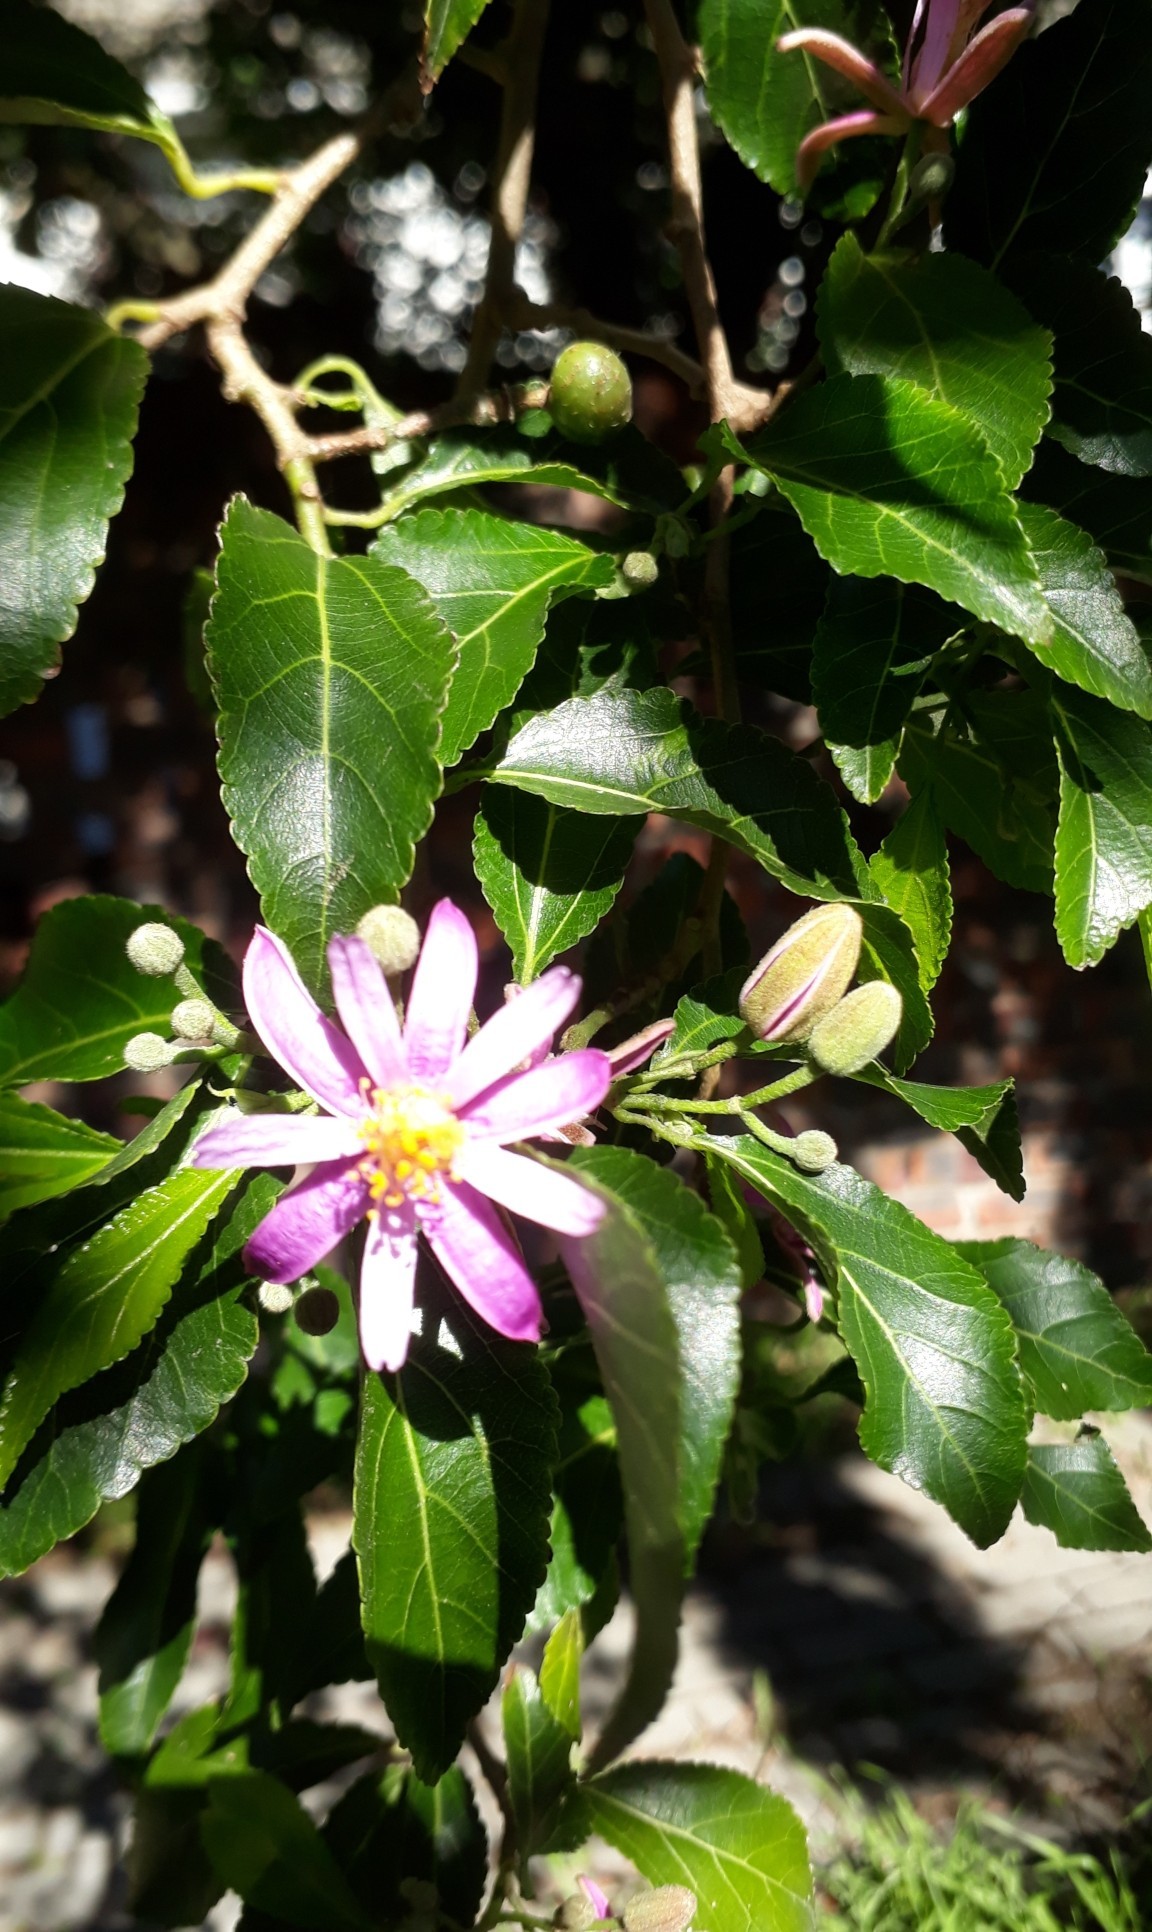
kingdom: Plantae
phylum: Tracheophyta
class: Magnoliopsida
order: Malvales
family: Malvaceae
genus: Grewia
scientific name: Grewia occidentalis
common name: Crossberry
